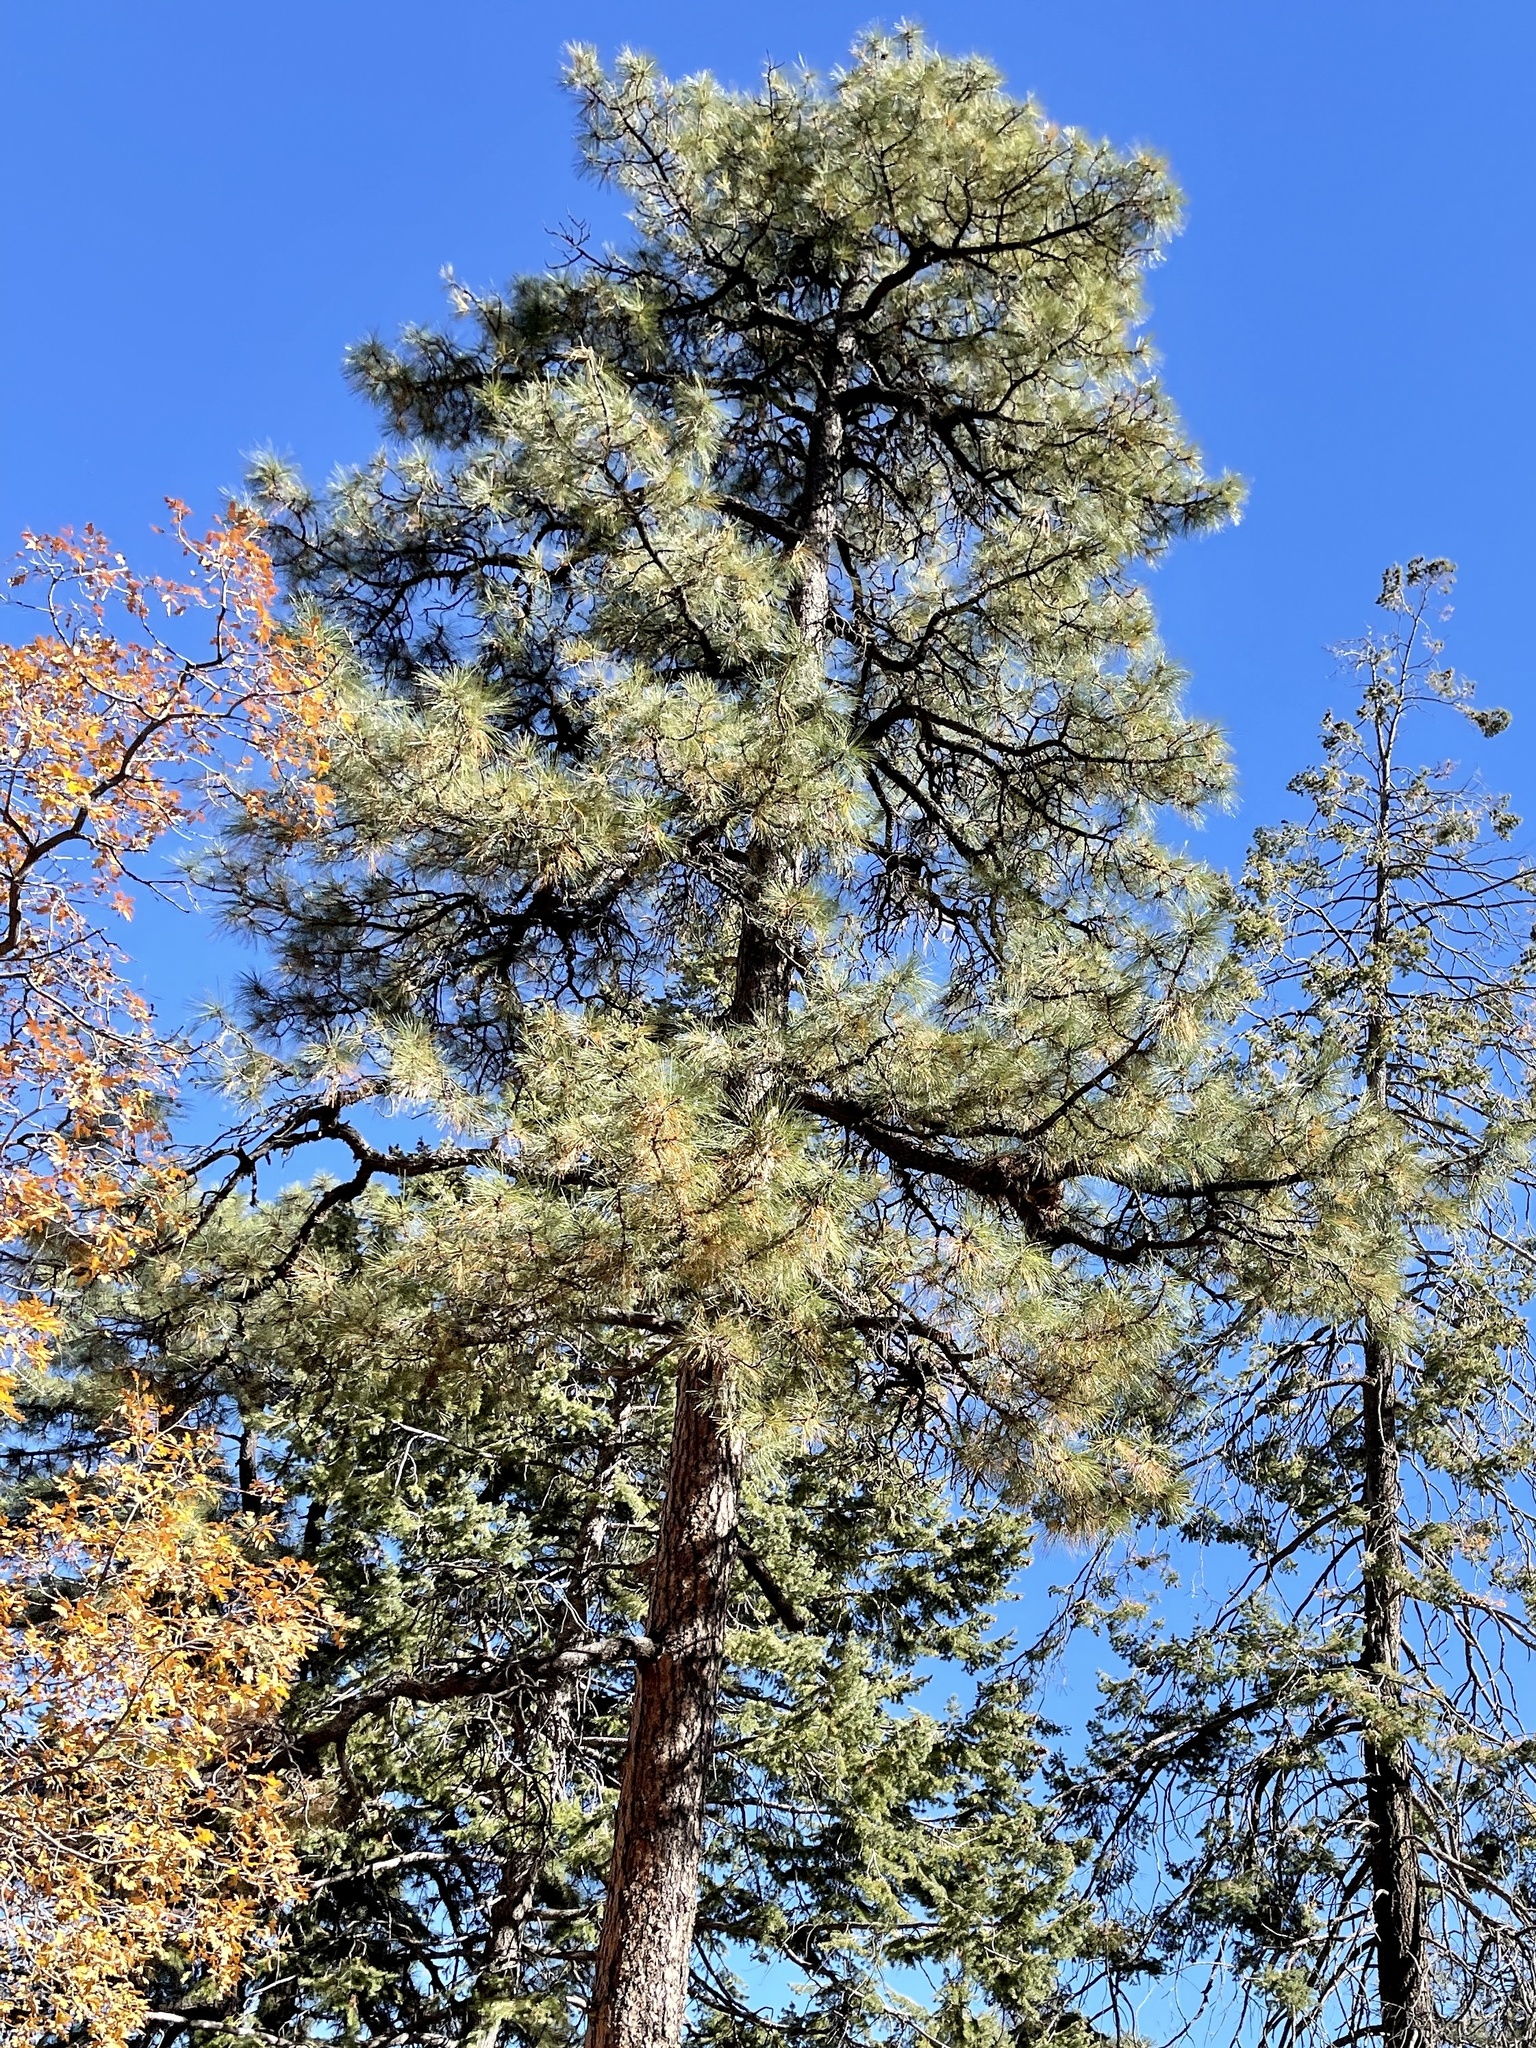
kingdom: Plantae
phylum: Tracheophyta
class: Pinopsida
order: Pinales
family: Pinaceae
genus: Pinus
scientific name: Pinus ponderosa
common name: Western yellow-pine
